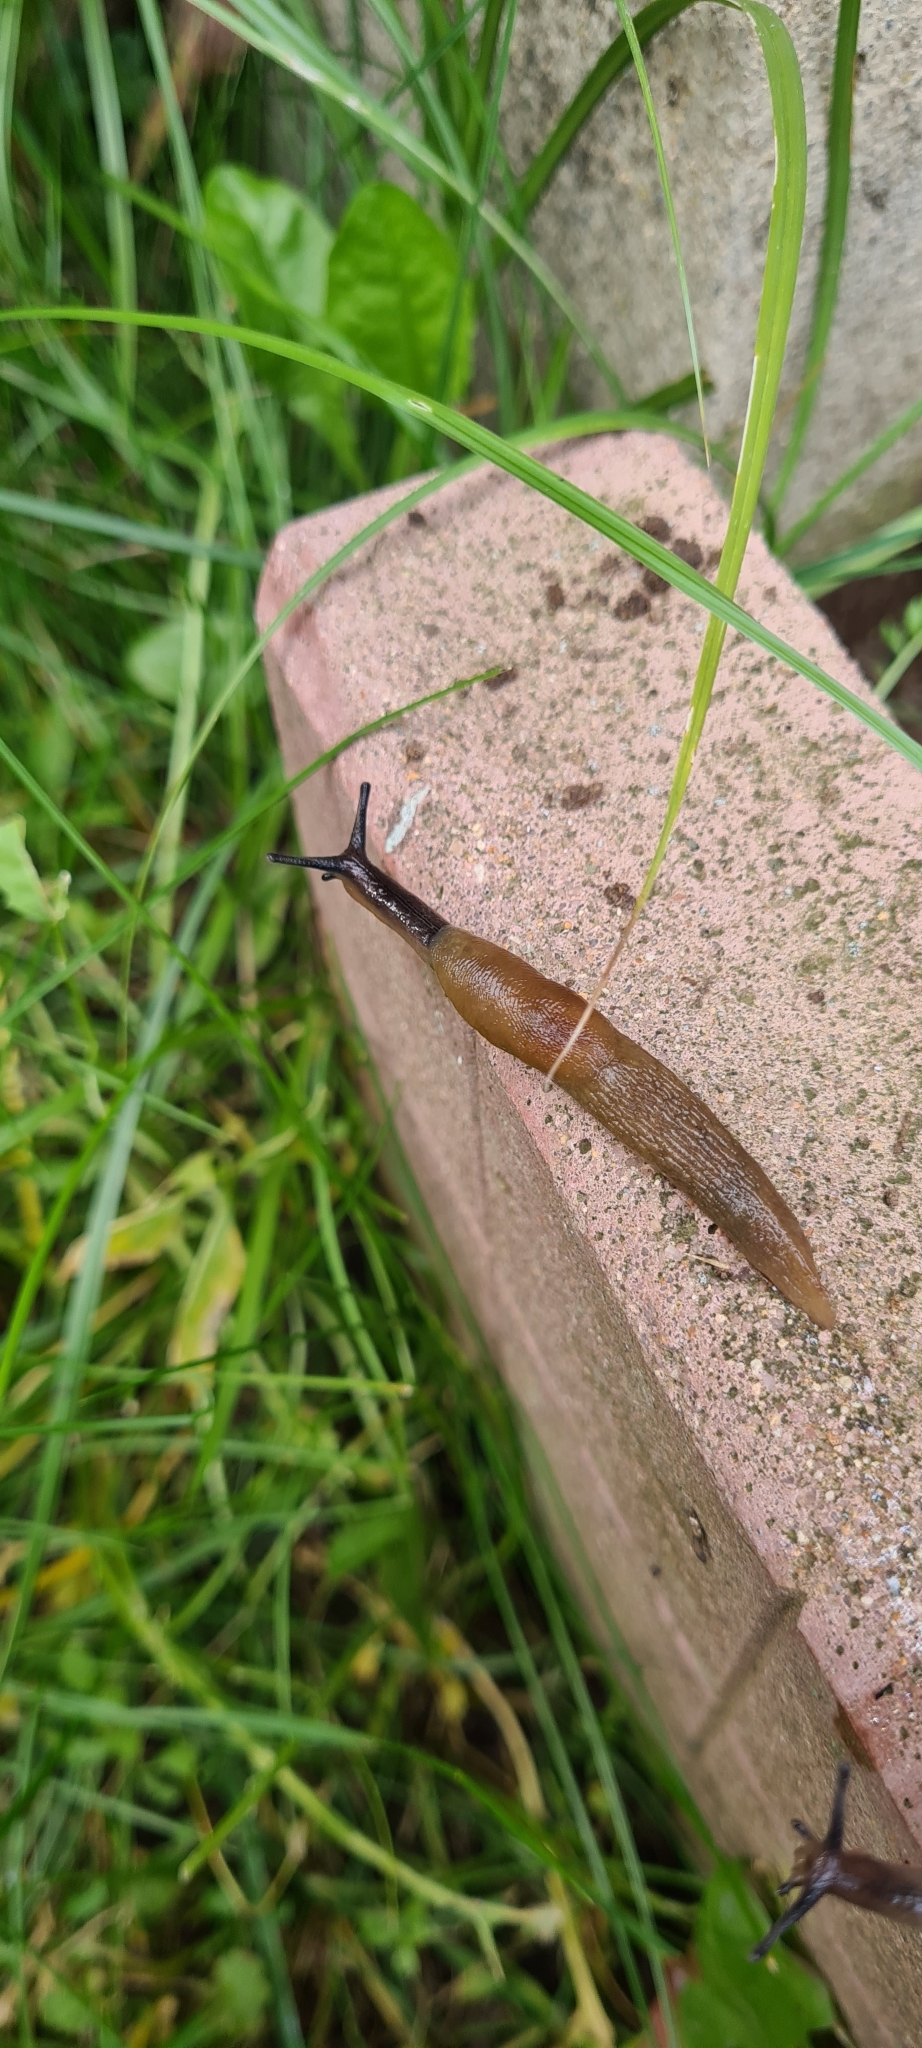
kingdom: Animalia
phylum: Mollusca
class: Gastropoda
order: Stylommatophora
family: Agriolimacidae
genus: Deroceras
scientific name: Deroceras caucasicum
